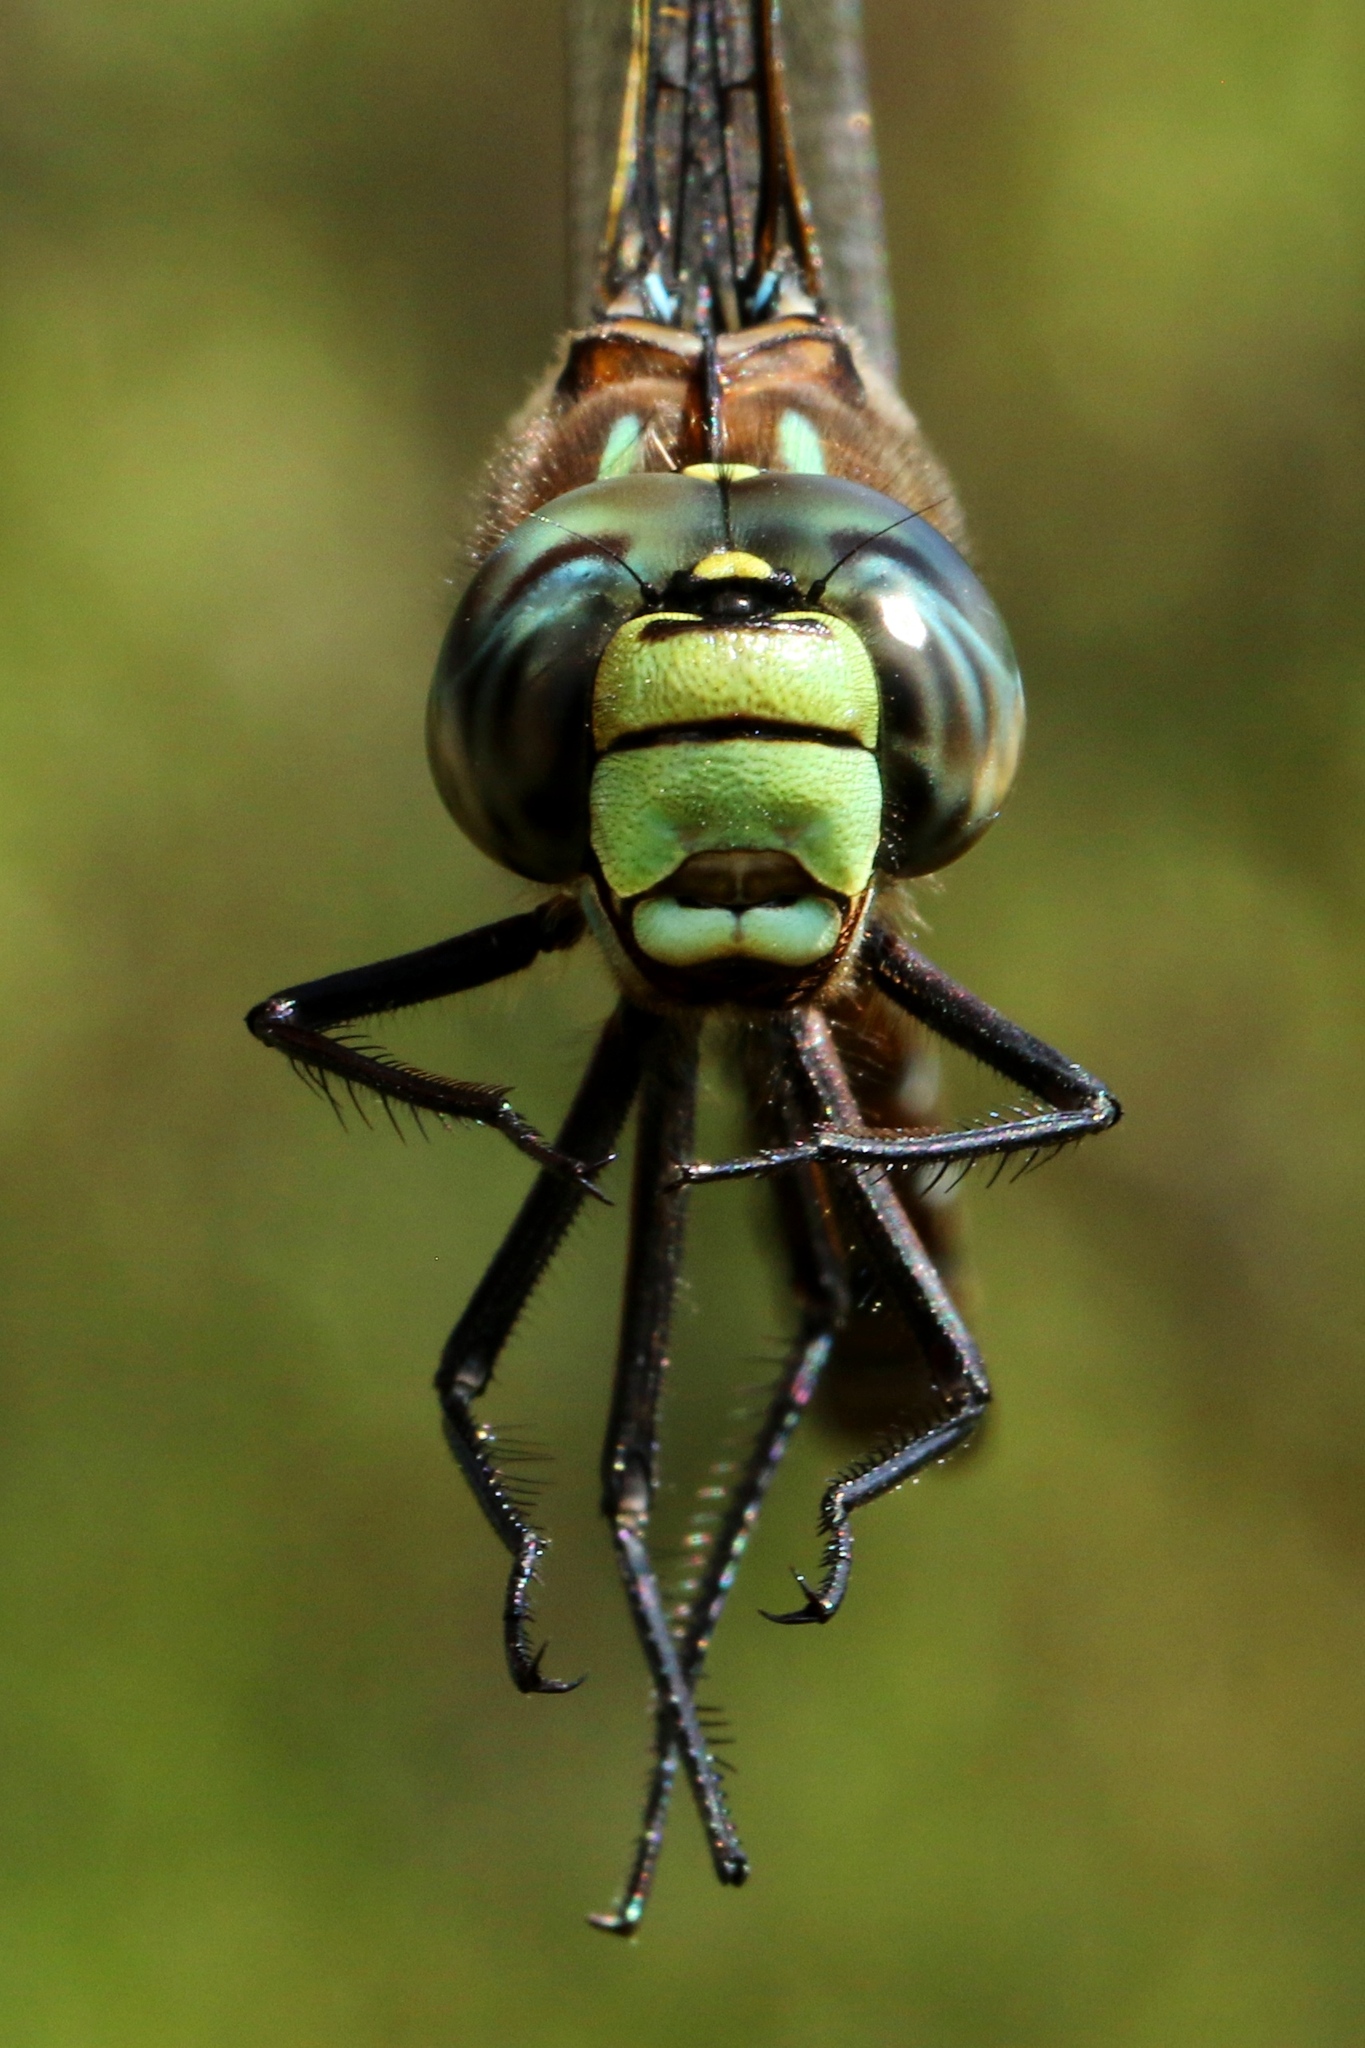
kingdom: Animalia
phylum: Arthropoda
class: Insecta
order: Odonata
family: Aeshnidae
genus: Aeshna
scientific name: Aeshna interrupta
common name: Variable darner
